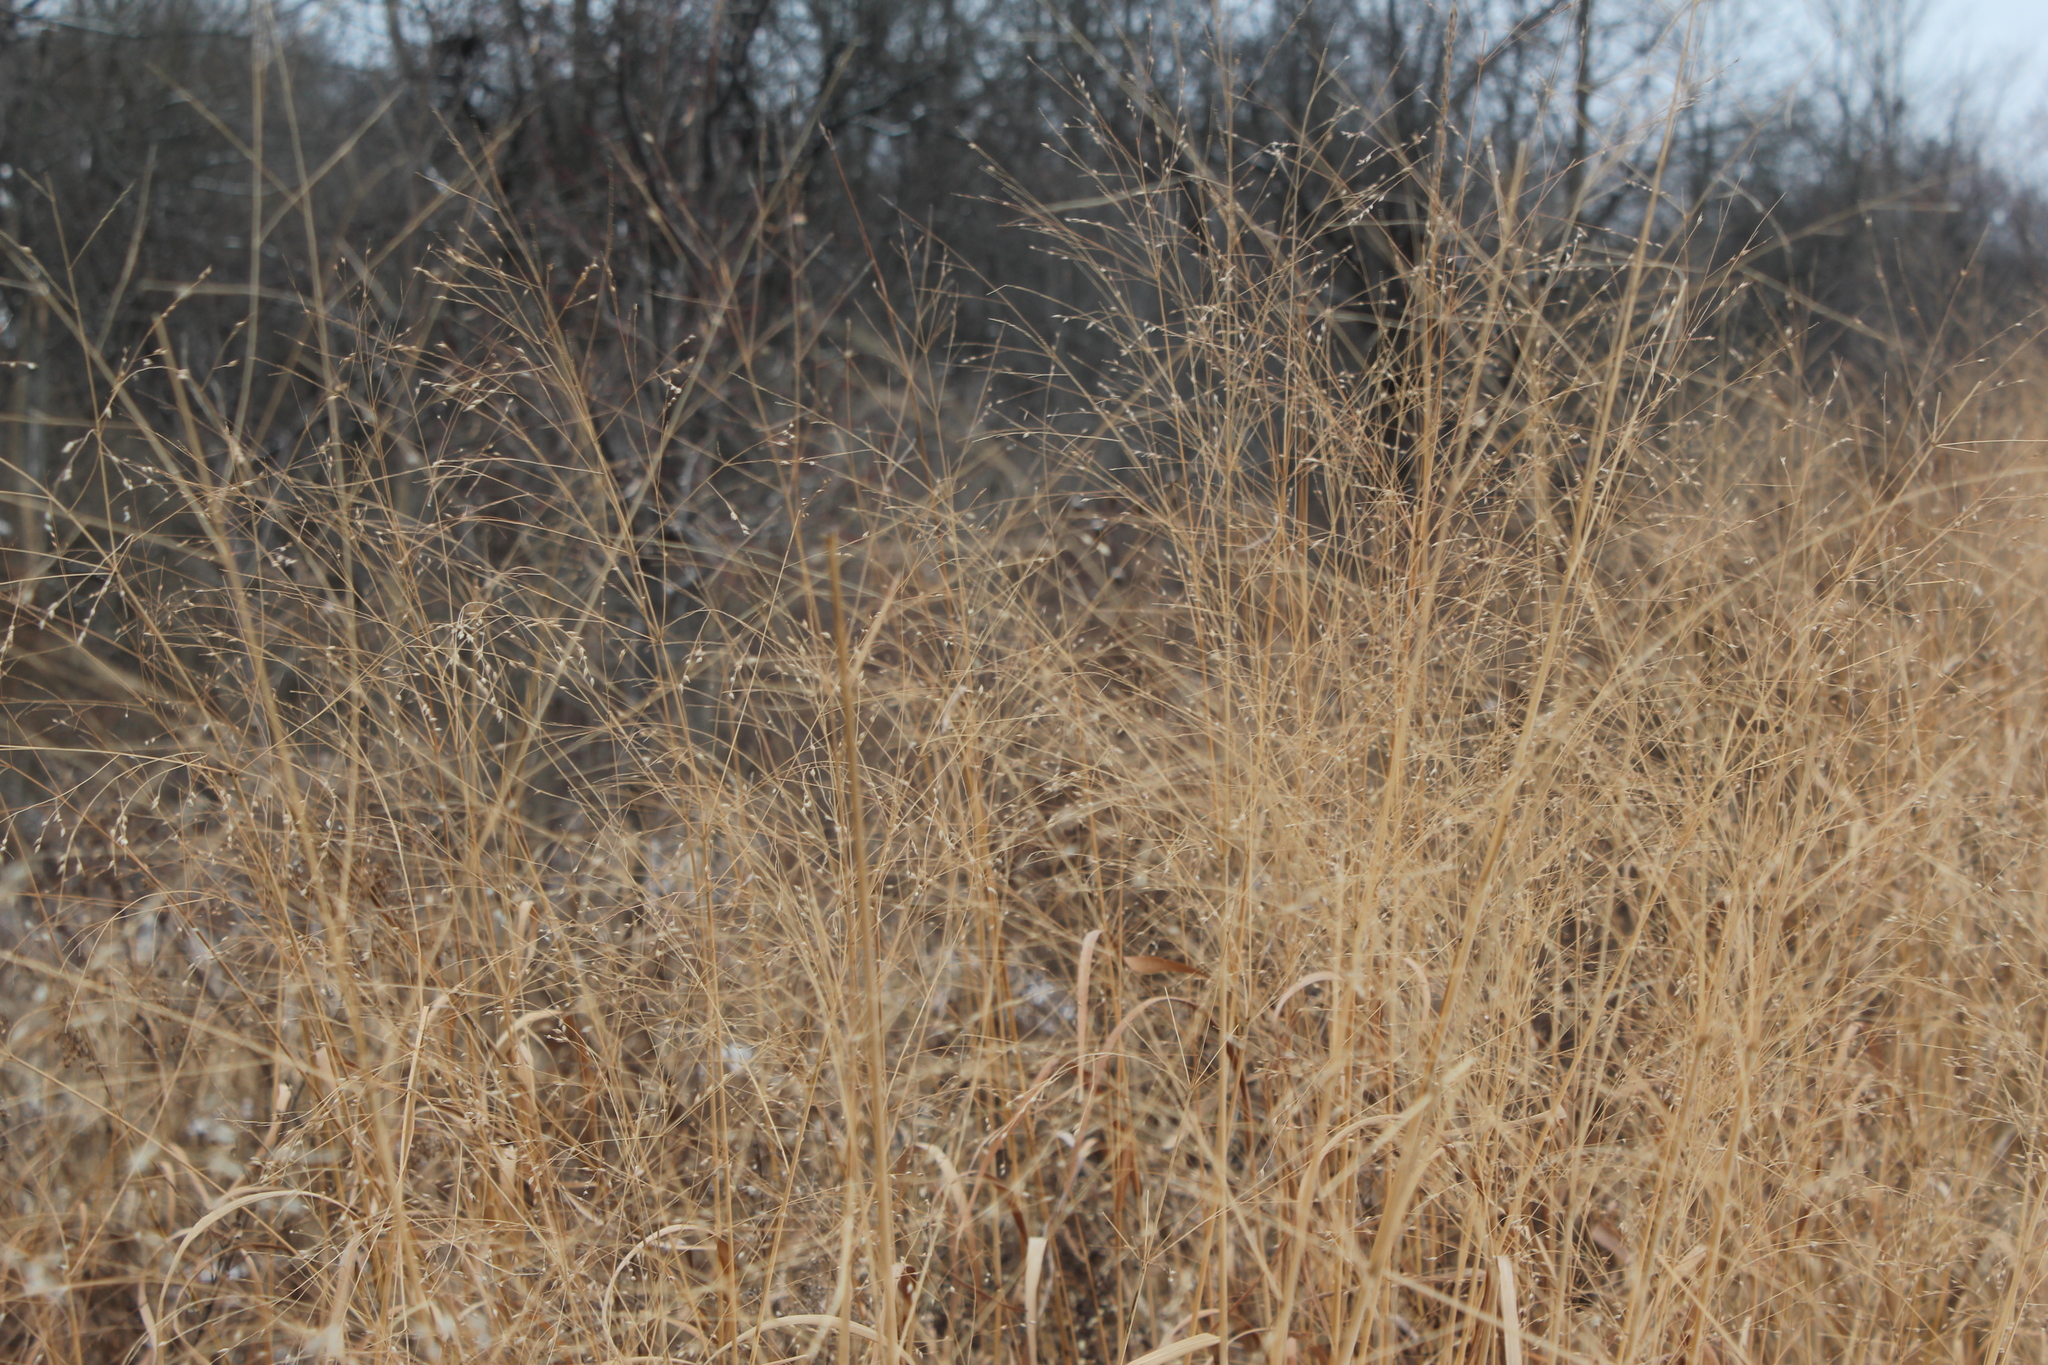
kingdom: Plantae
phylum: Tracheophyta
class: Liliopsida
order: Poales
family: Poaceae
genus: Panicum
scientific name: Panicum virgatum
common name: Switchgrass
